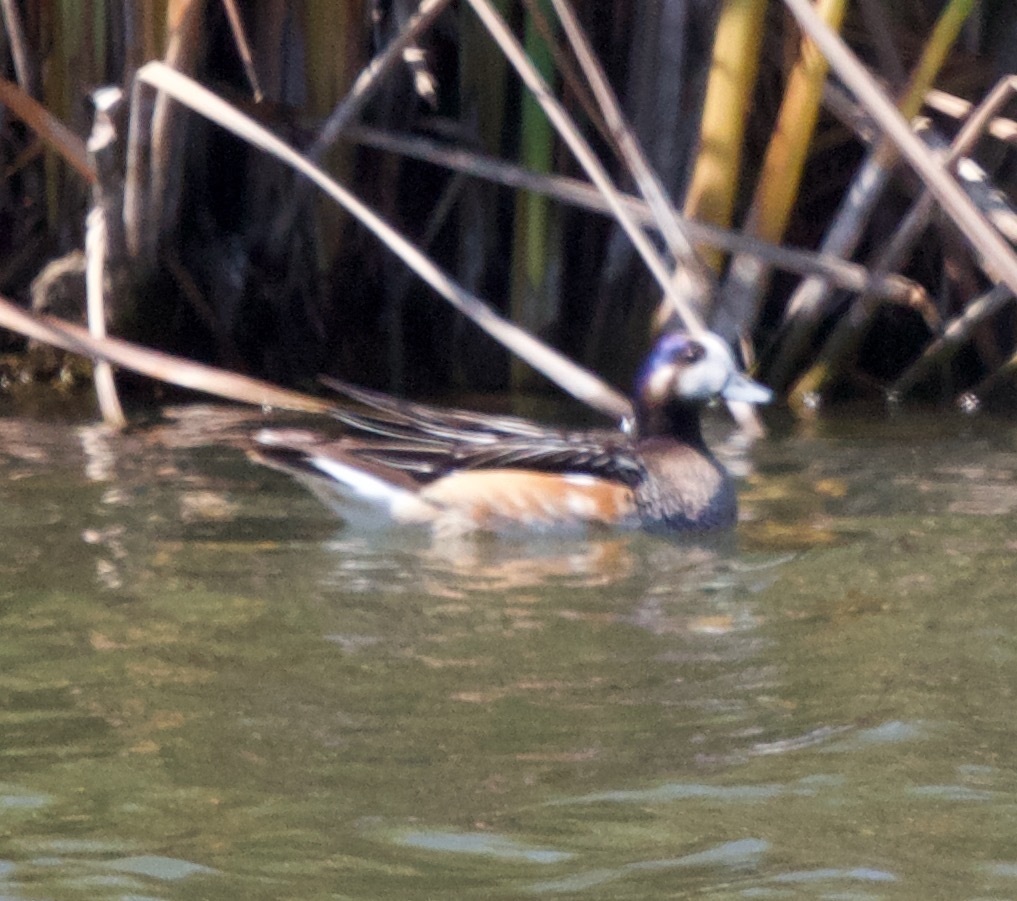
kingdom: Animalia
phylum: Chordata
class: Aves
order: Anseriformes
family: Anatidae
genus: Mareca
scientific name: Mareca sibilatrix
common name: Chiloe wigeon
